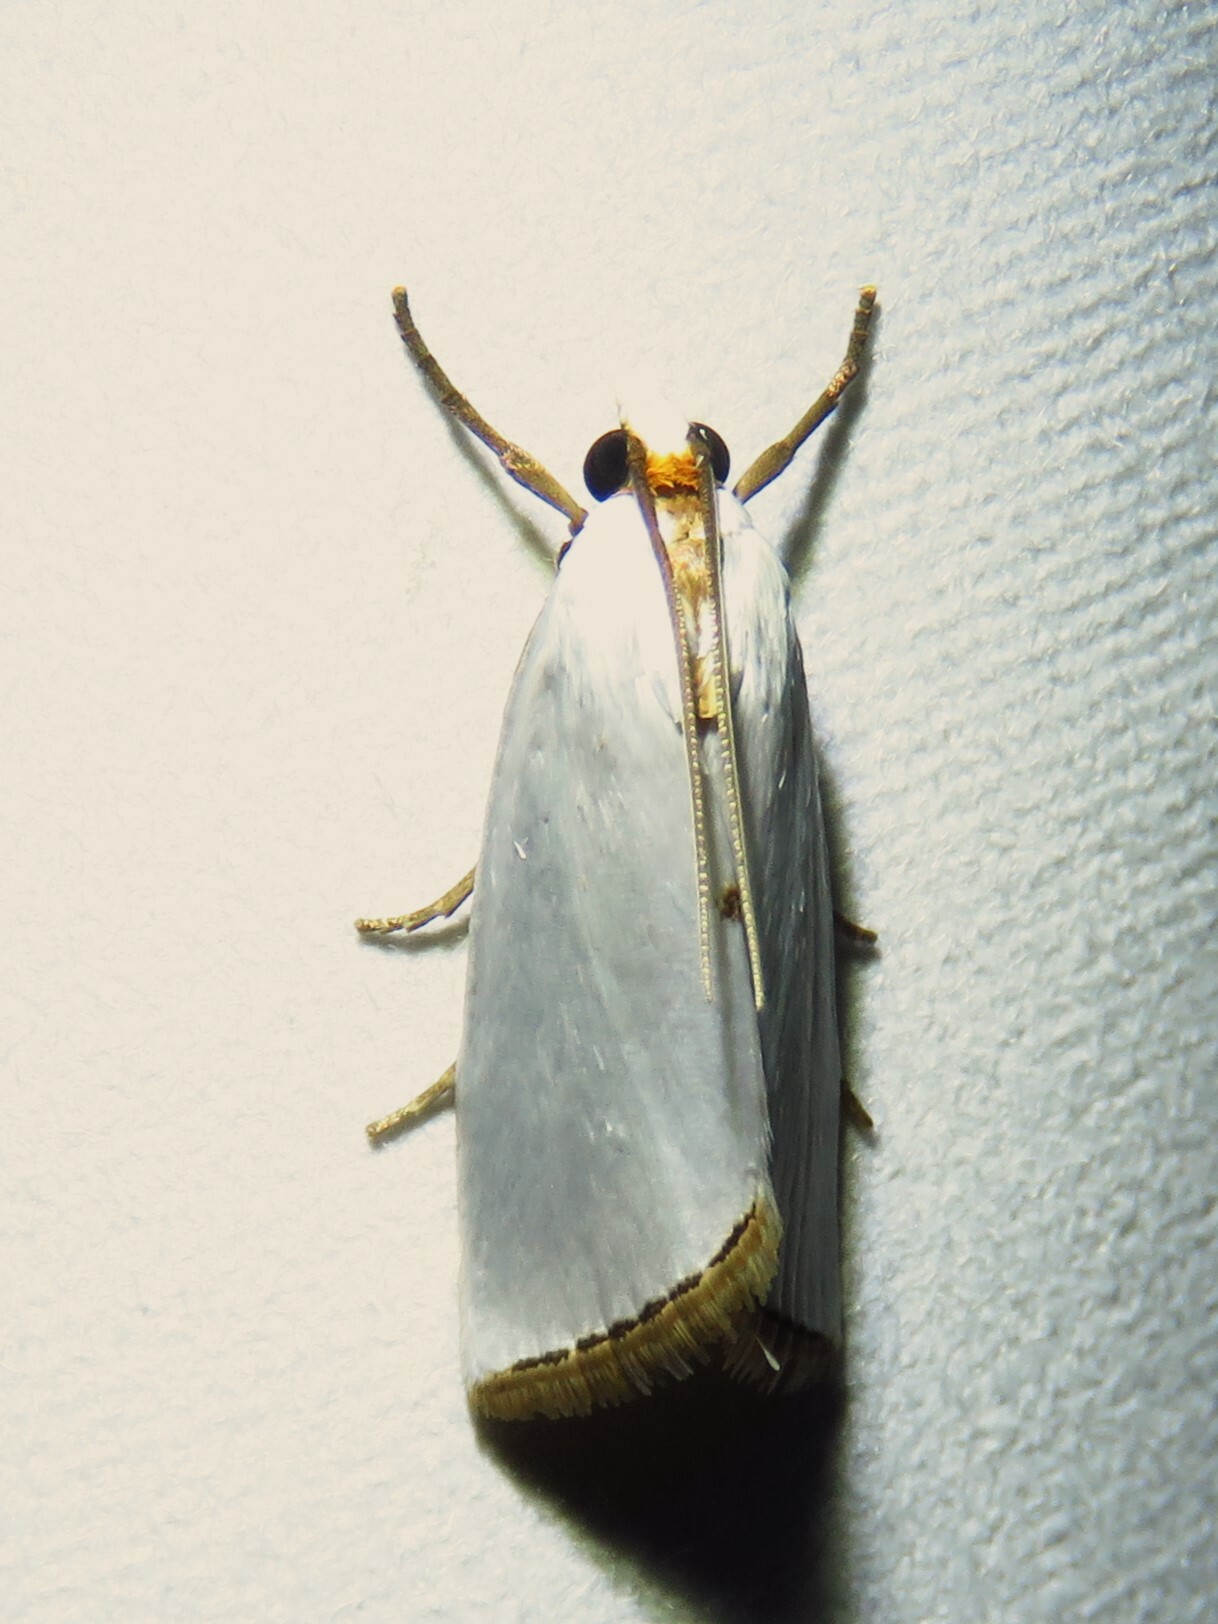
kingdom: Animalia
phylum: Arthropoda
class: Insecta
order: Lepidoptera
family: Crambidae
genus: Argyria
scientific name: Argyria nivalis
